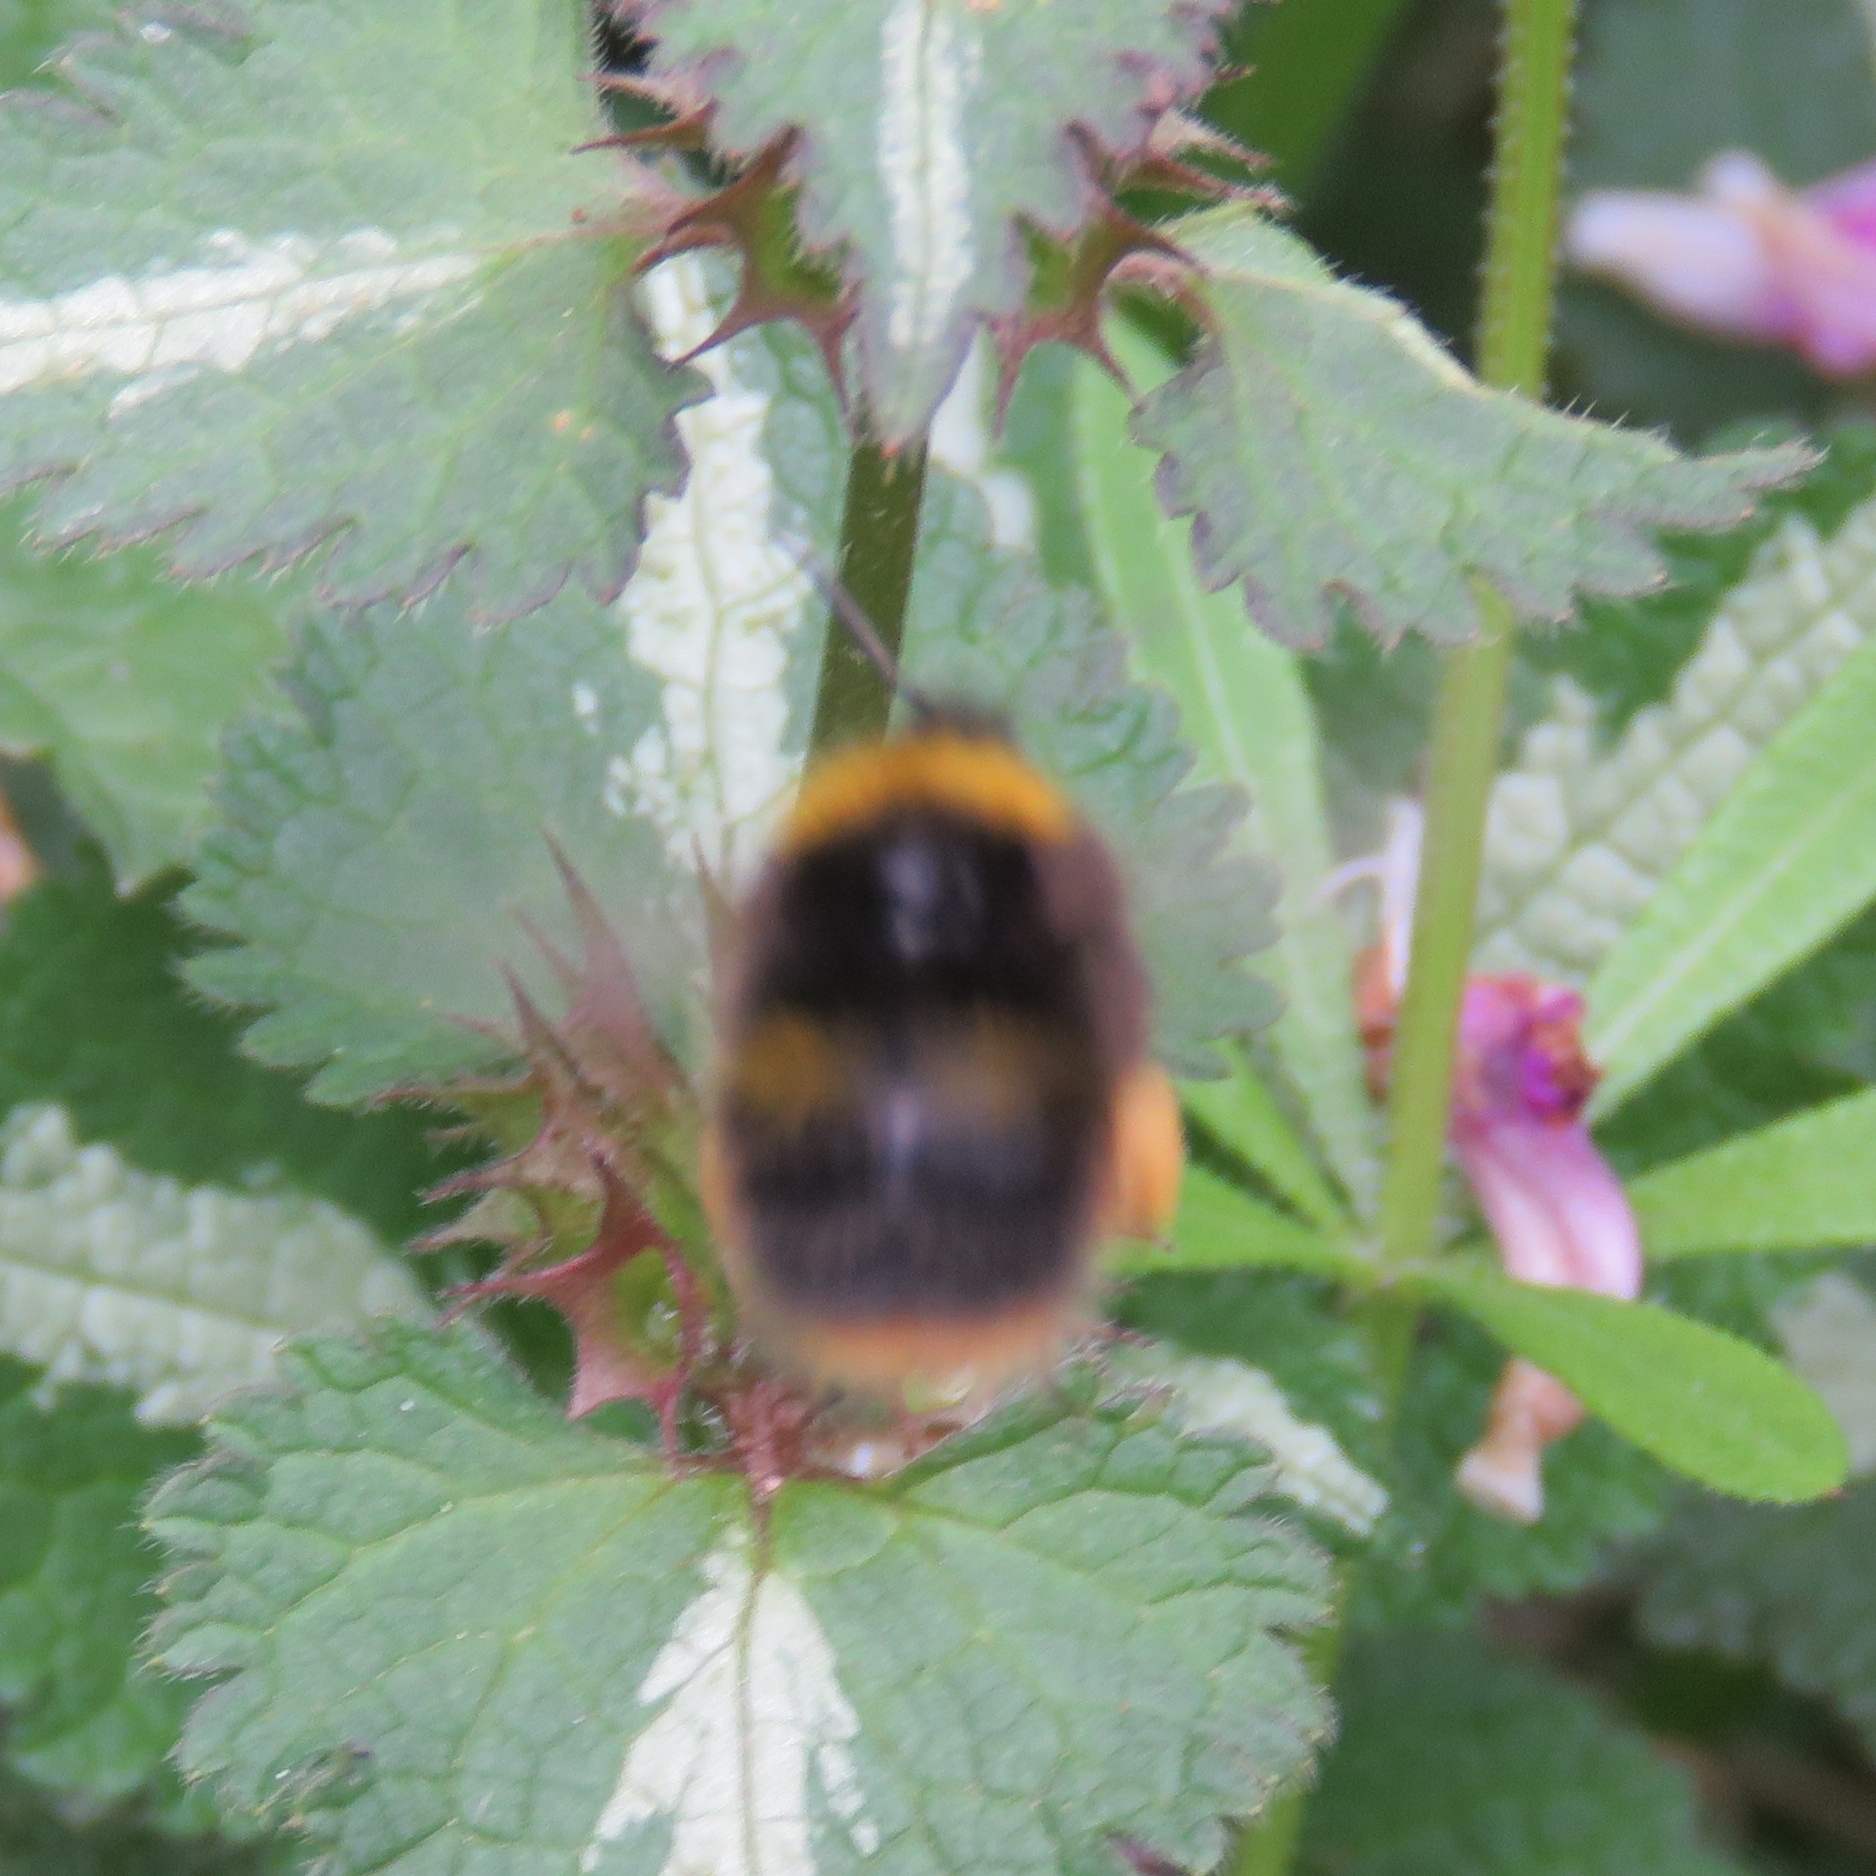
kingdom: Animalia
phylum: Arthropoda
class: Insecta
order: Hymenoptera
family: Apidae
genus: Bombus
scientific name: Bombus pratorum
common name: Early humble-bee
